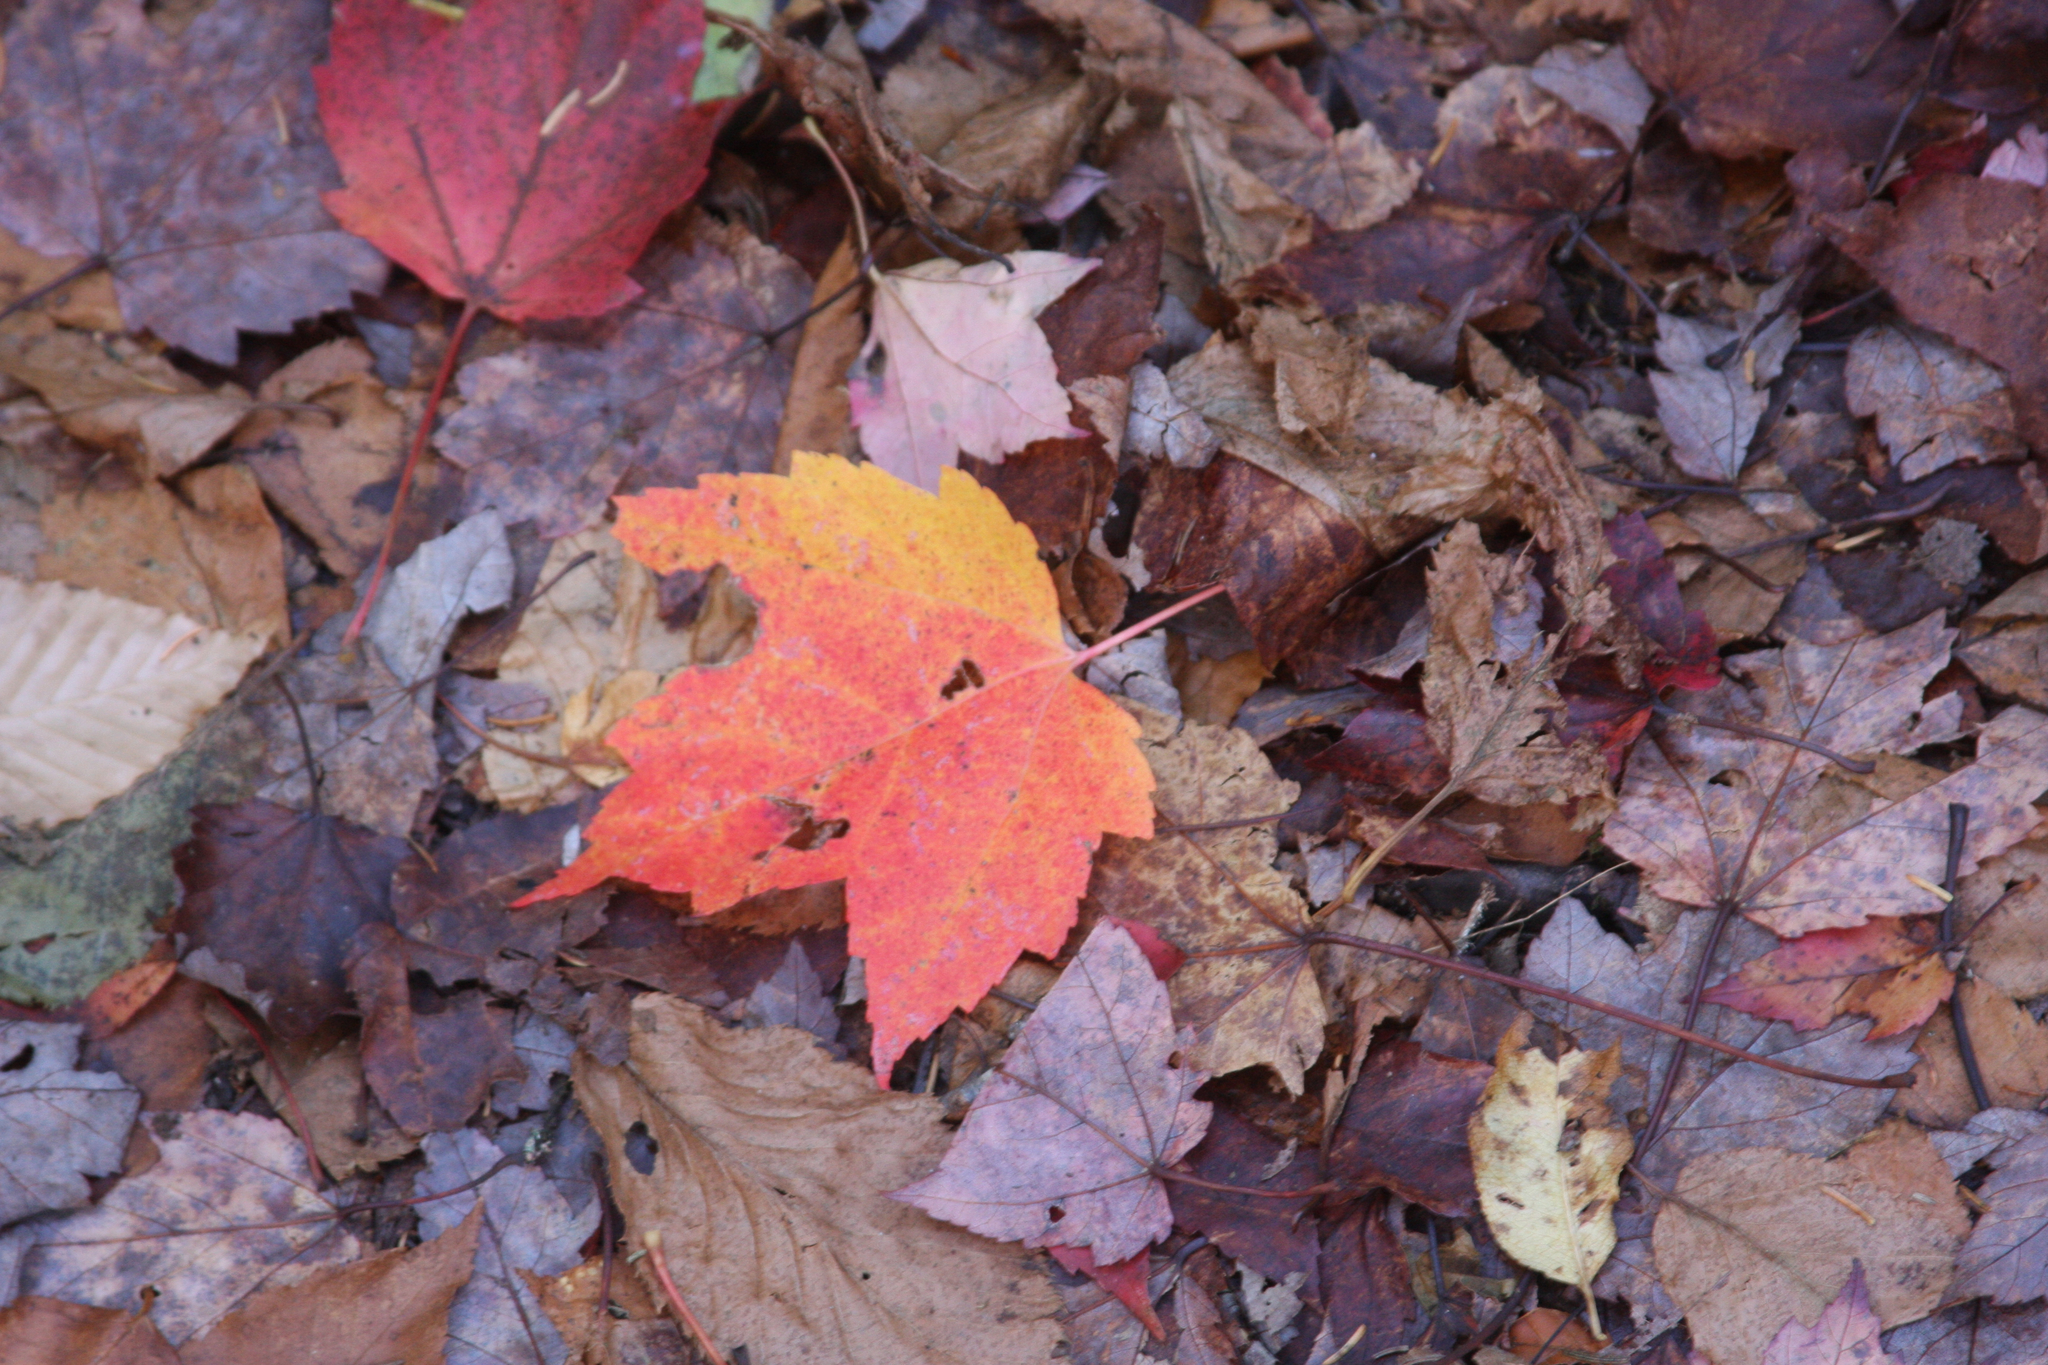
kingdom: Plantae
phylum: Tracheophyta
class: Magnoliopsida
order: Sapindales
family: Sapindaceae
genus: Acer
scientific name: Acer rubrum
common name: Red maple
